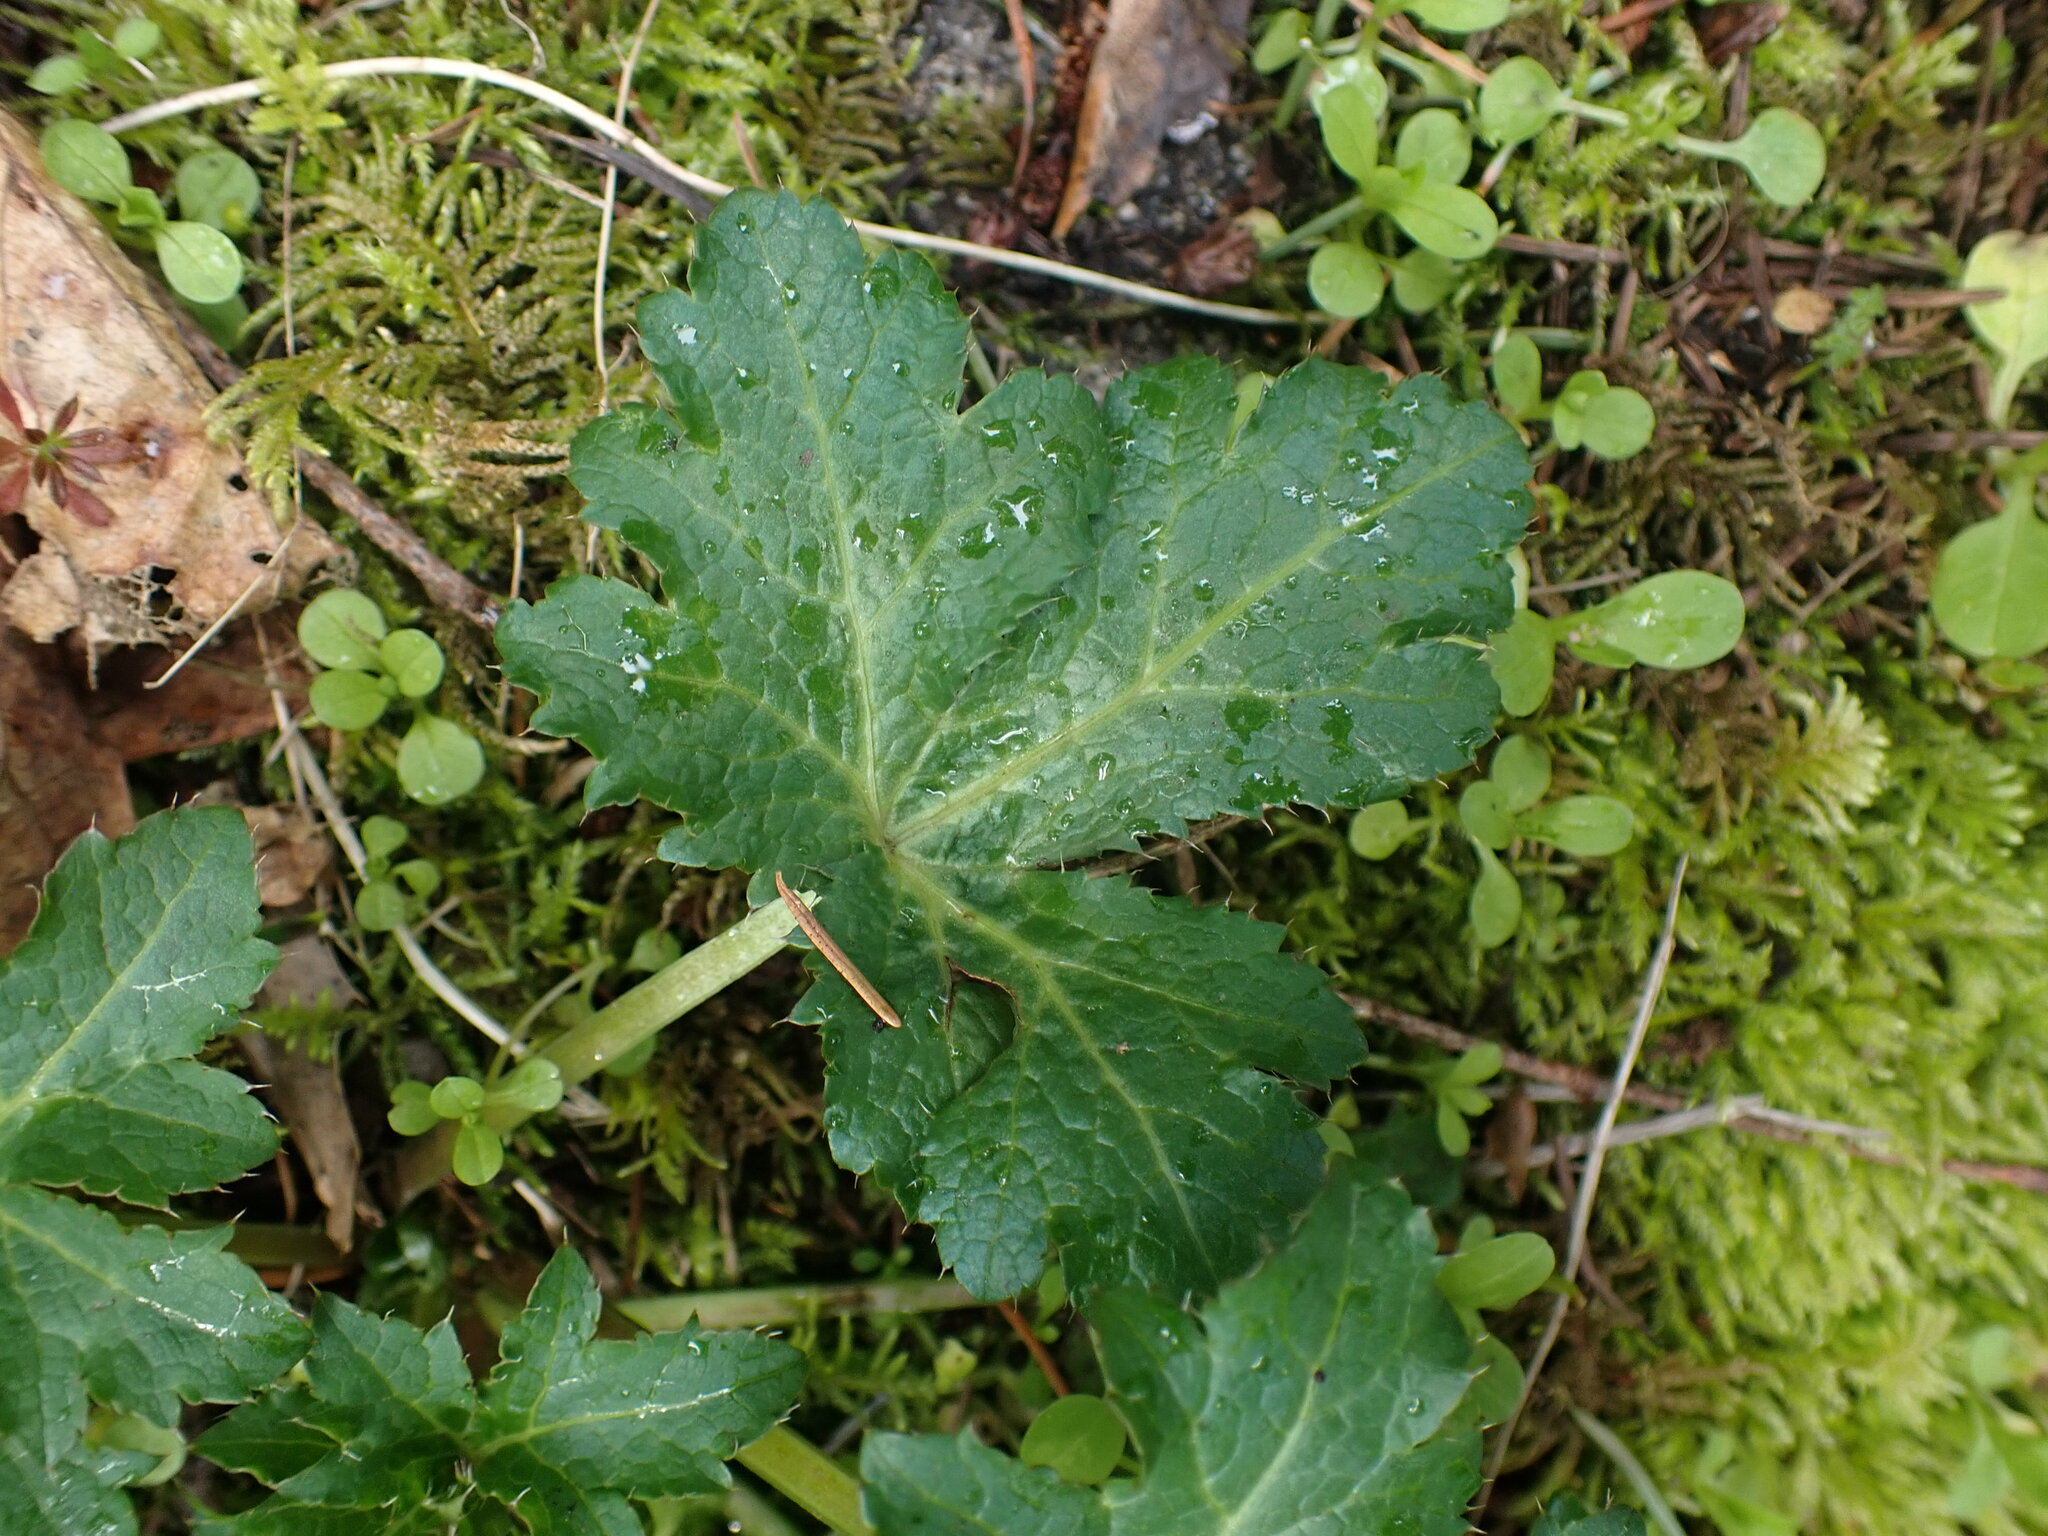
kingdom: Plantae
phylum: Tracheophyta
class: Magnoliopsida
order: Apiales
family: Apiaceae
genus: Sanicula
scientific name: Sanicula crassicaulis
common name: Western snakeroot
